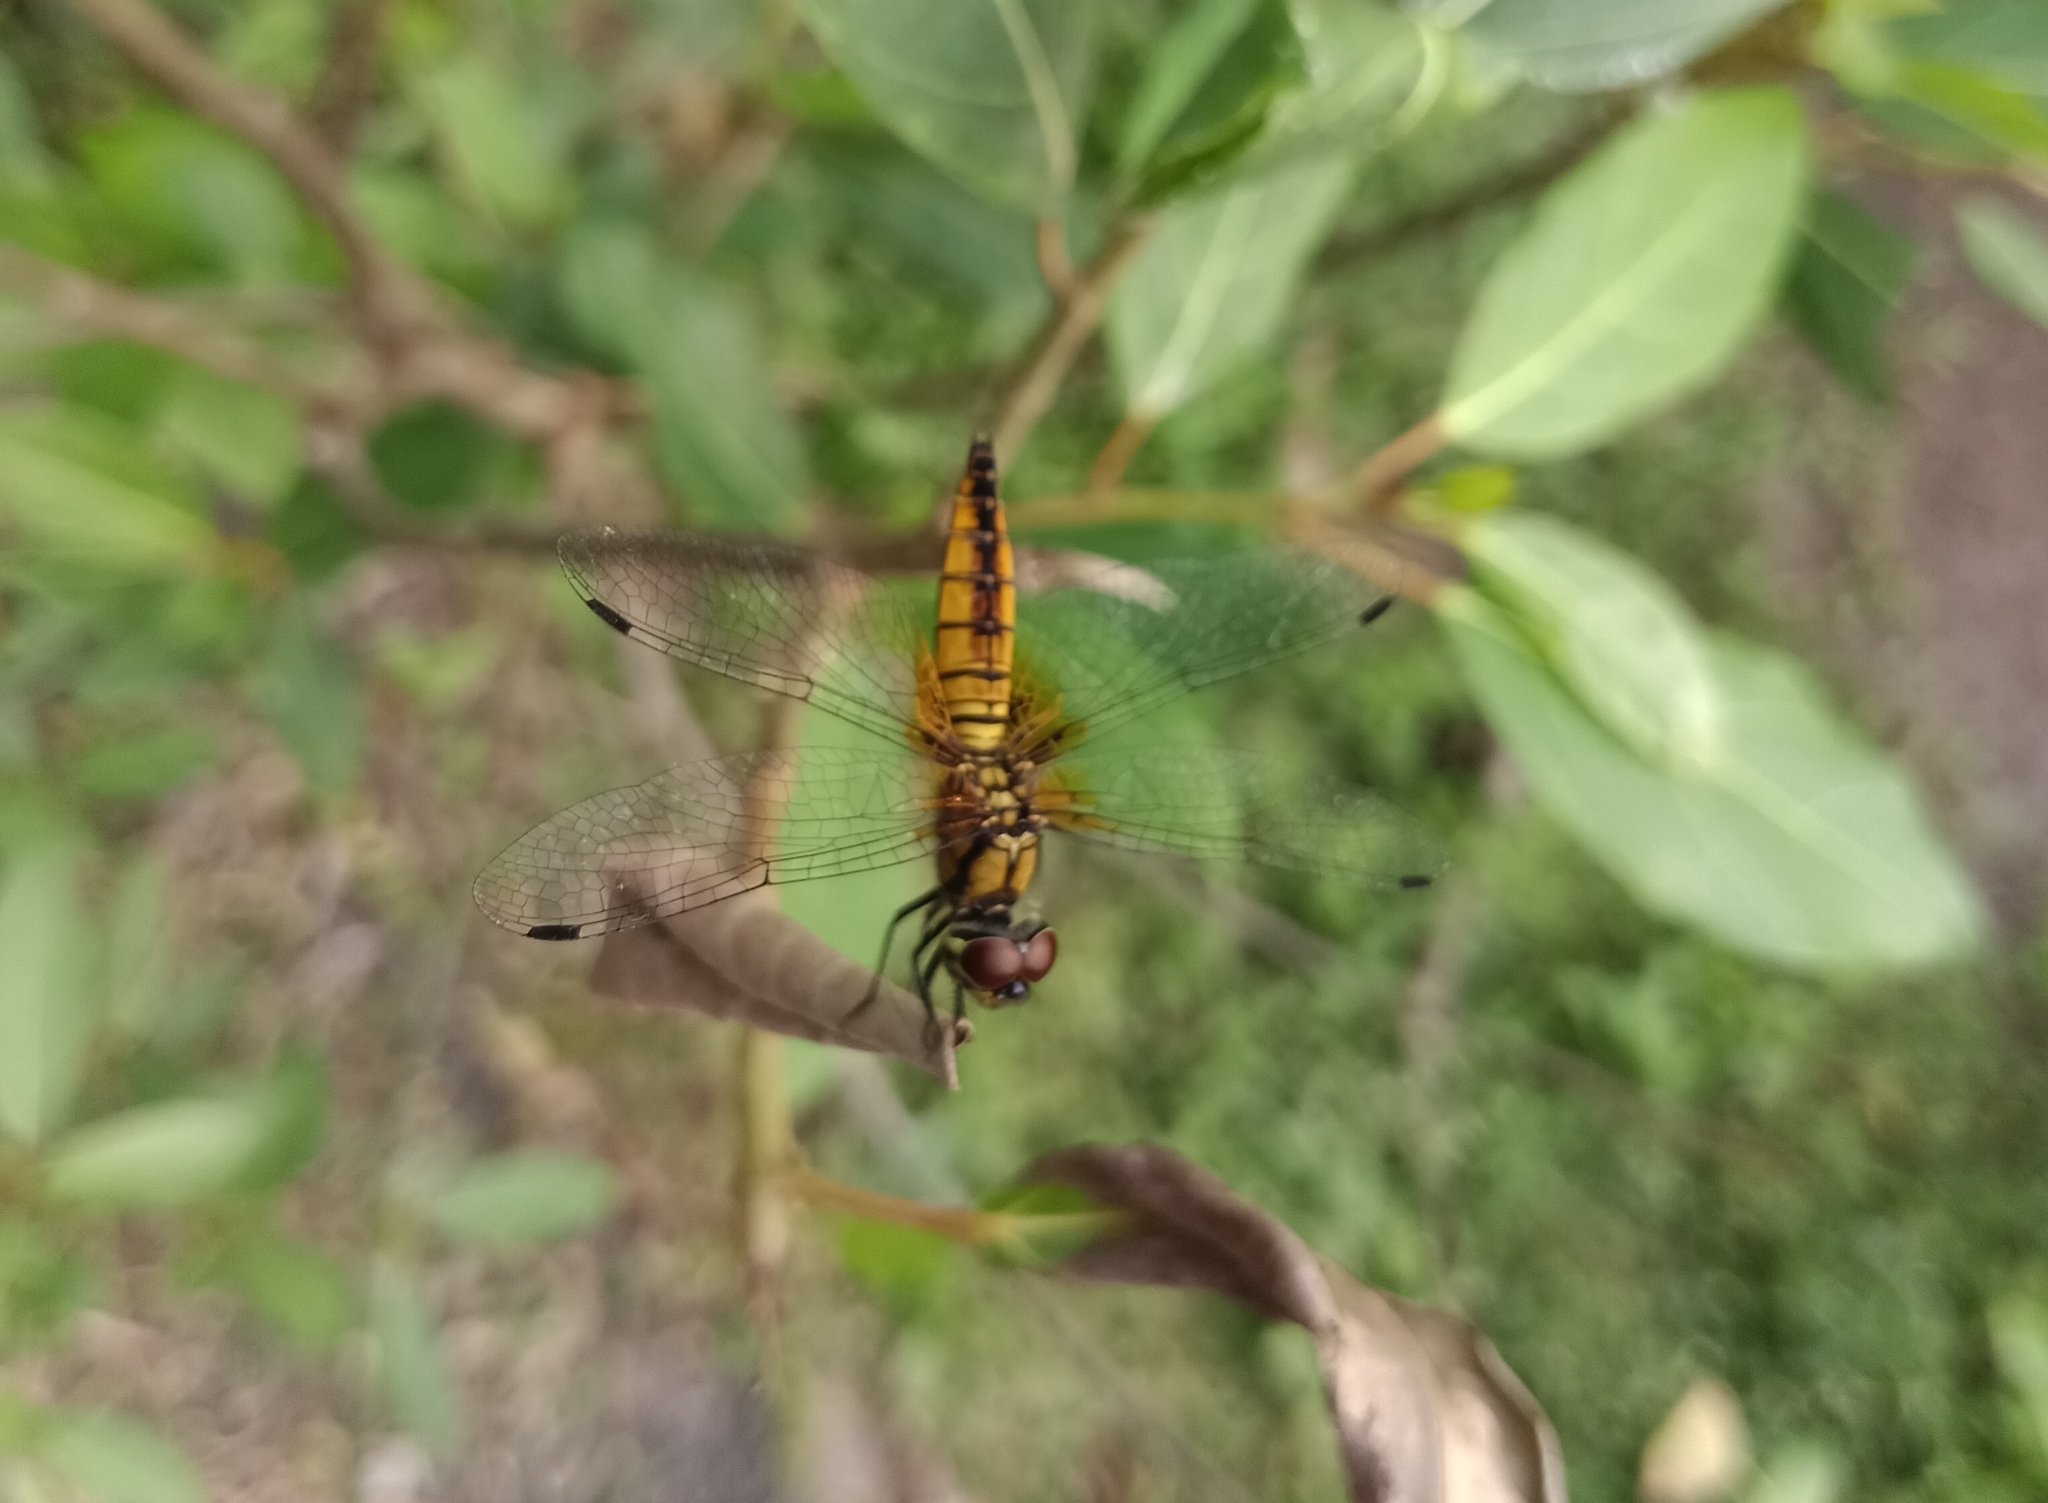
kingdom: Animalia
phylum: Arthropoda
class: Insecta
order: Odonata
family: Libellulidae
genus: Aethriamanta
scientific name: Aethriamanta brevipennis
